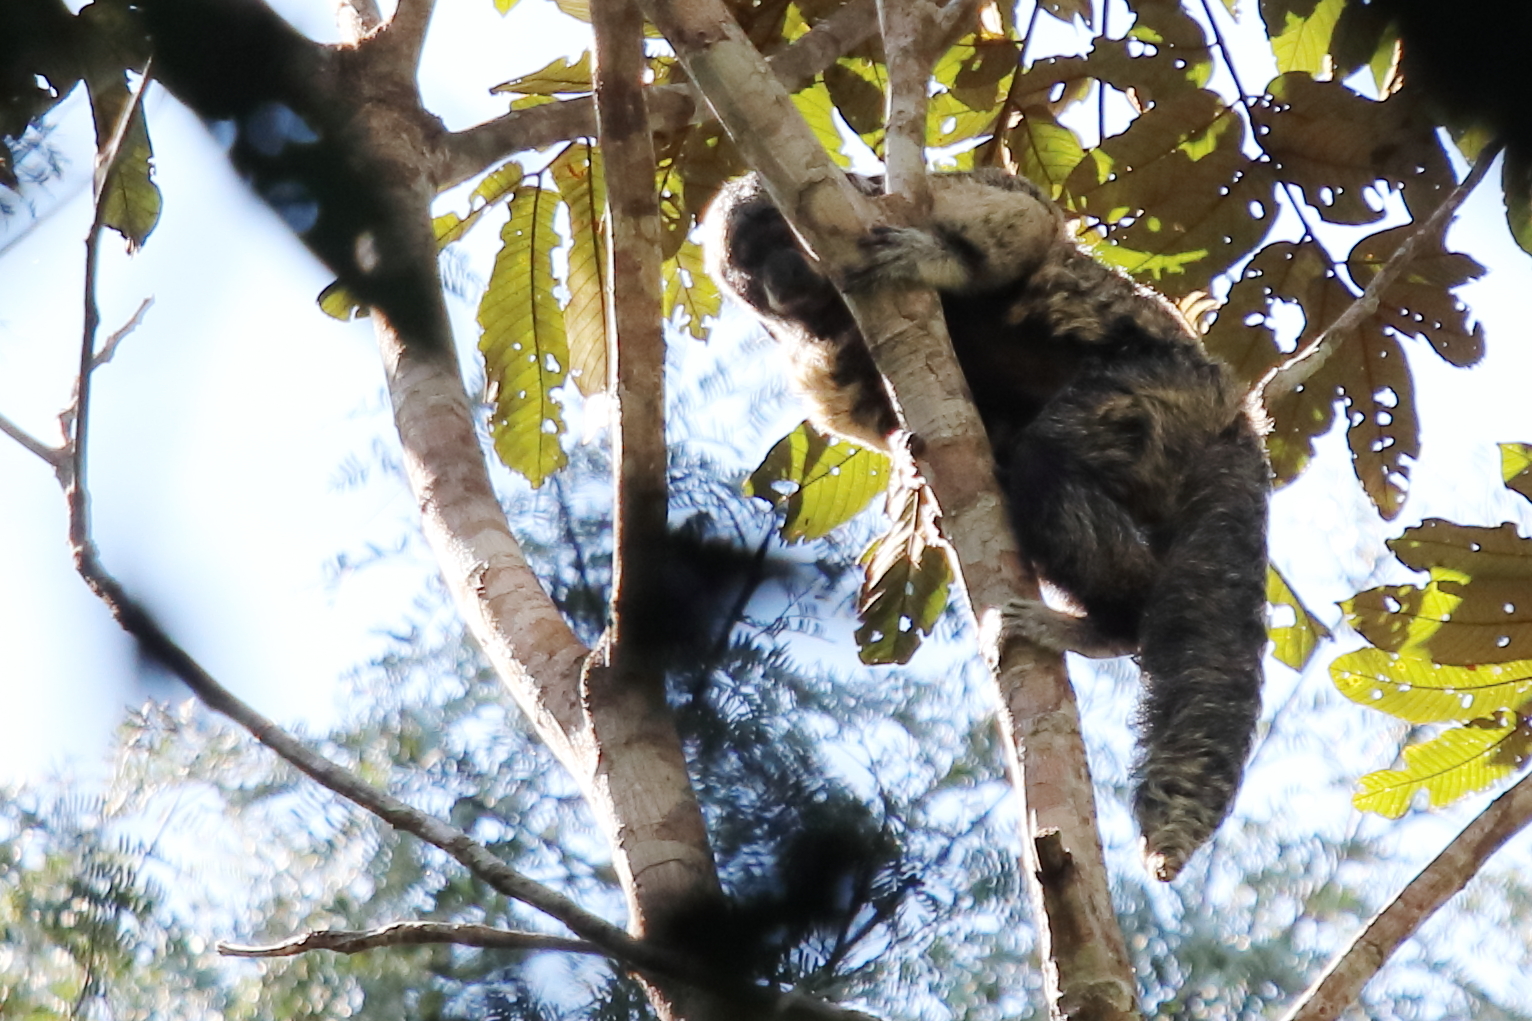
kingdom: Animalia
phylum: Chordata
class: Mammalia
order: Primates
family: Pitheciidae
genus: Pithecia
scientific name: Pithecia rylandsi
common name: Ryland's bald-faced saki
